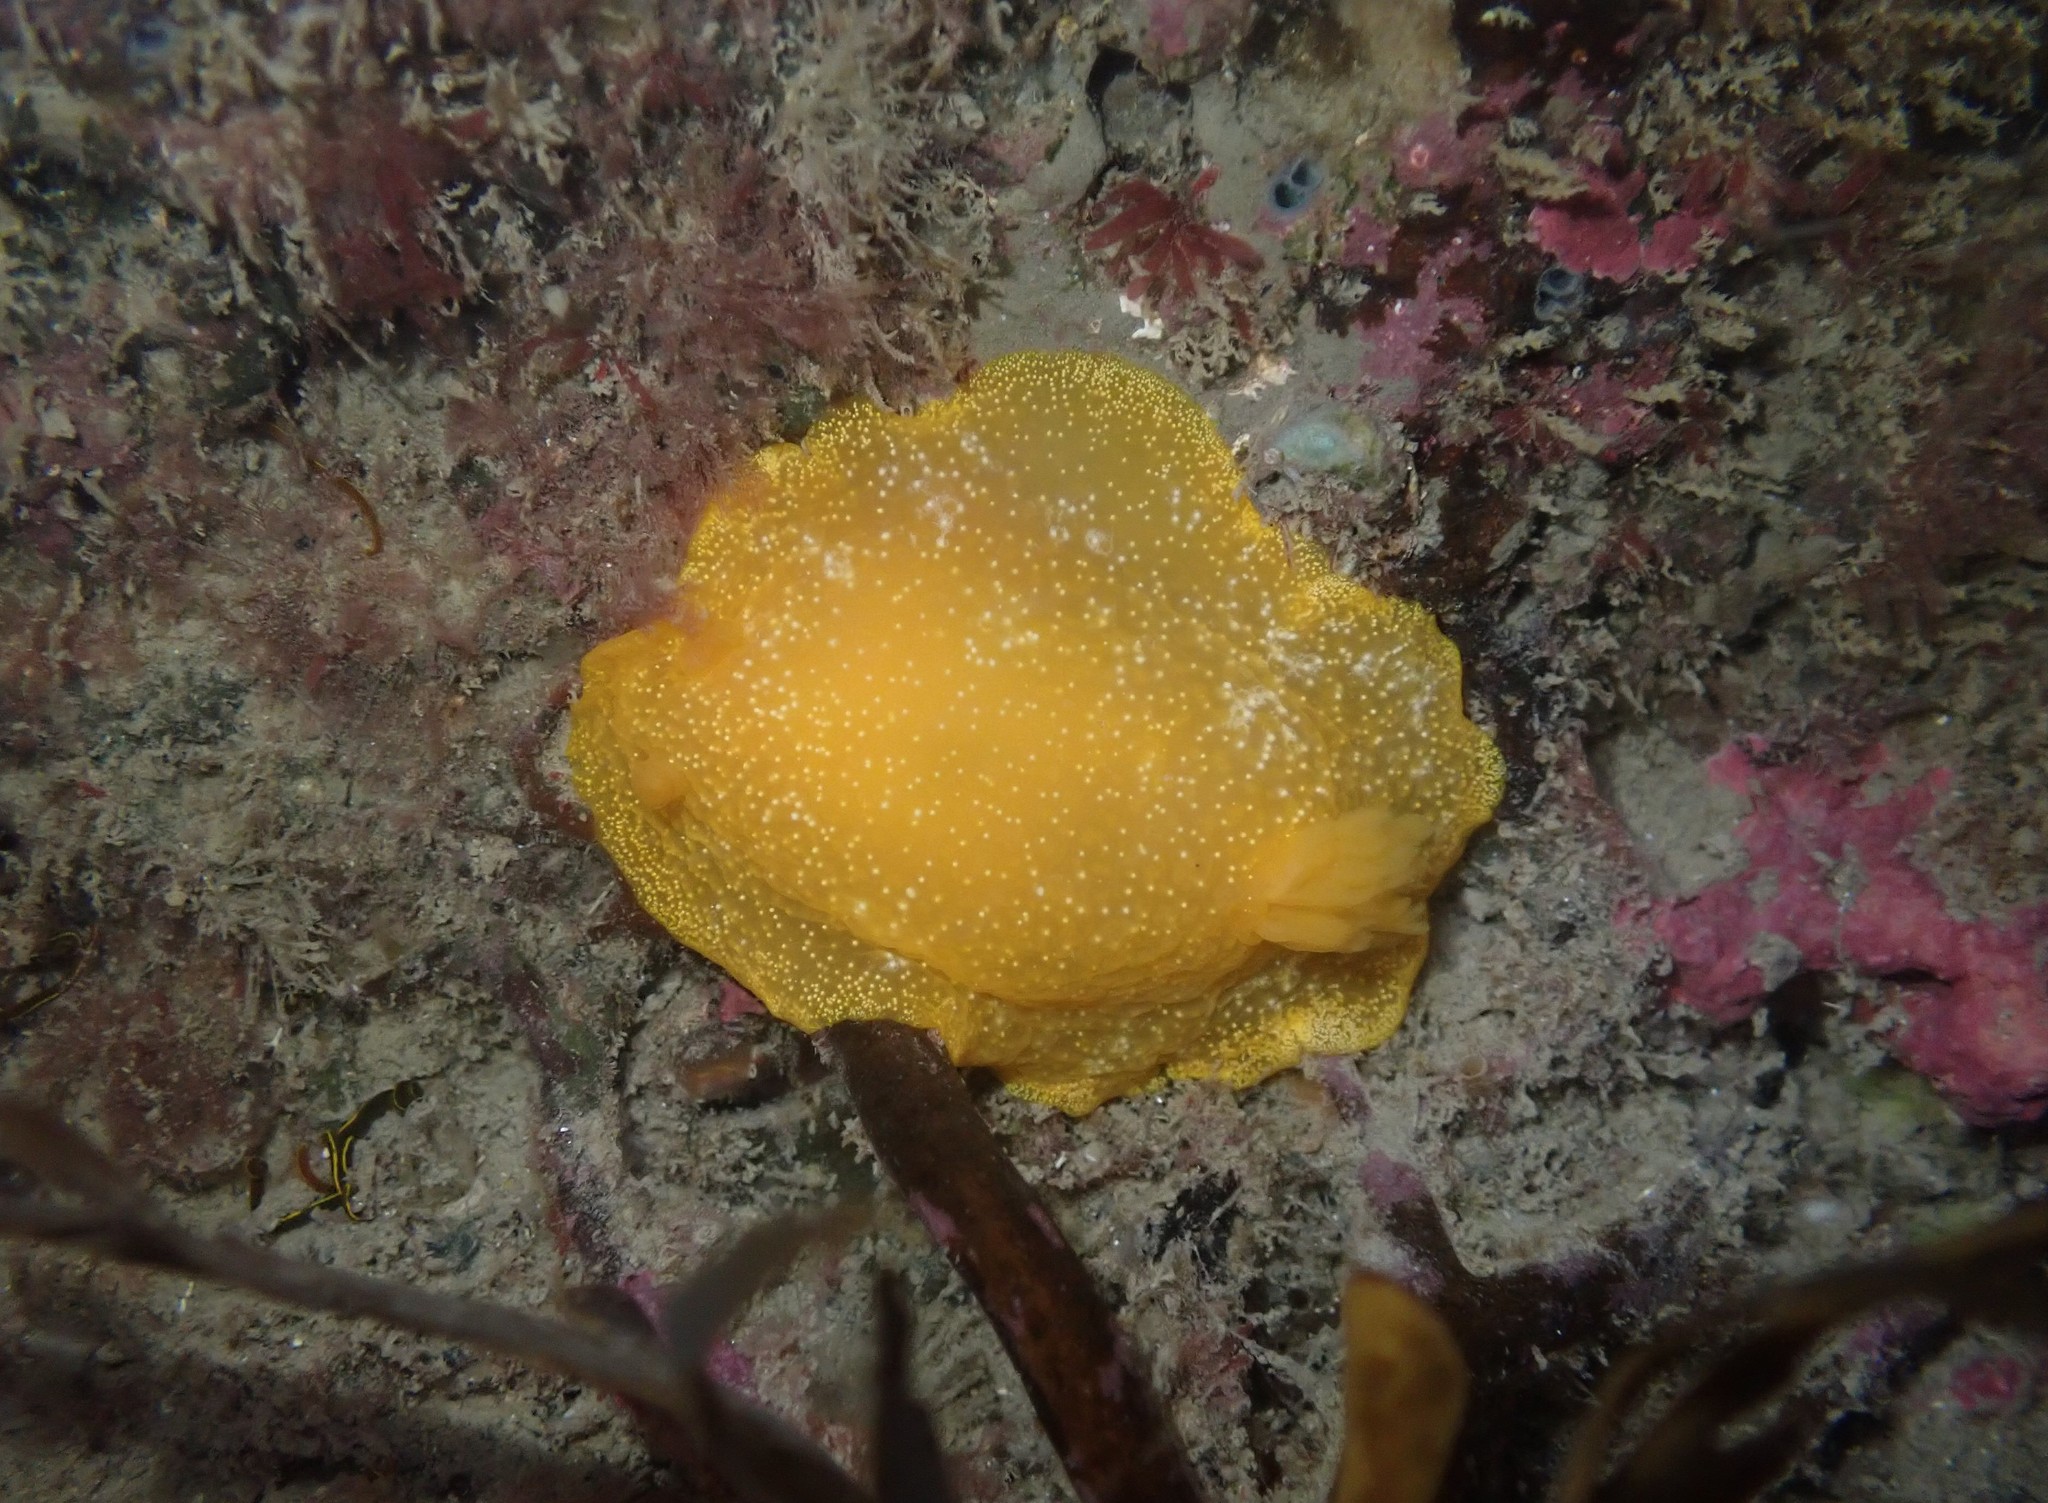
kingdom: Animalia
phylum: Mollusca
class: Gastropoda
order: Nudibranchia
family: Dendrodorididae
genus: Dendrodoris
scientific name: Dendrodoris citrina
